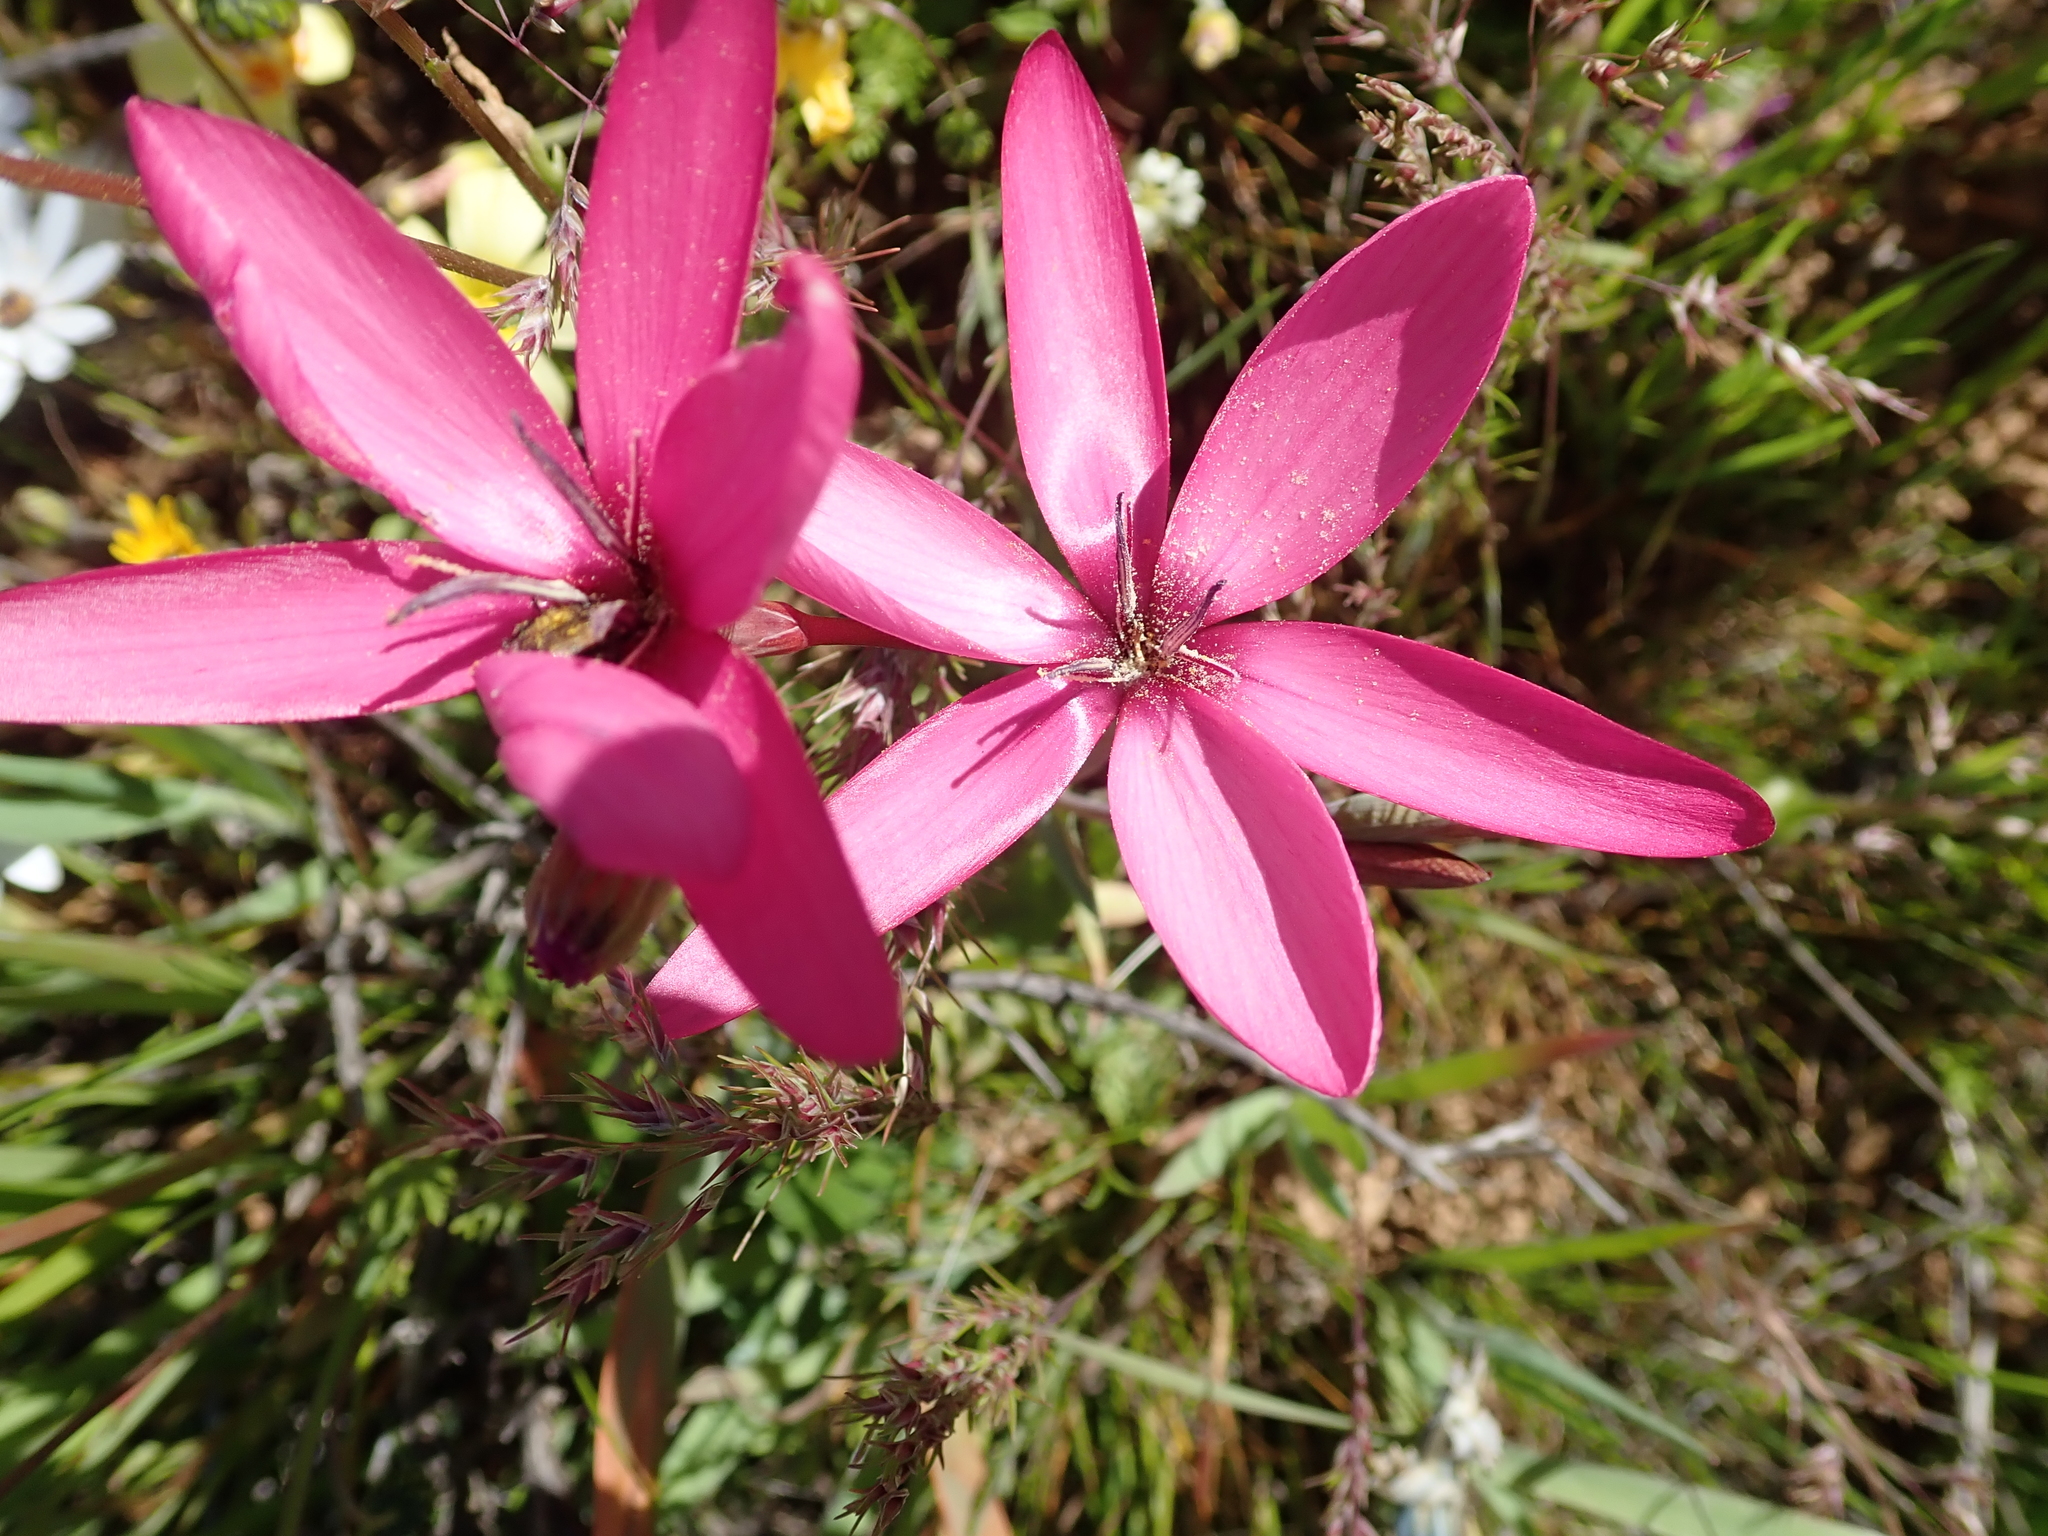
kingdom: Plantae
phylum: Tracheophyta
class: Liliopsida
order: Asparagales
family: Iridaceae
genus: Hesperantha
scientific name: Hesperantha pauciflora
